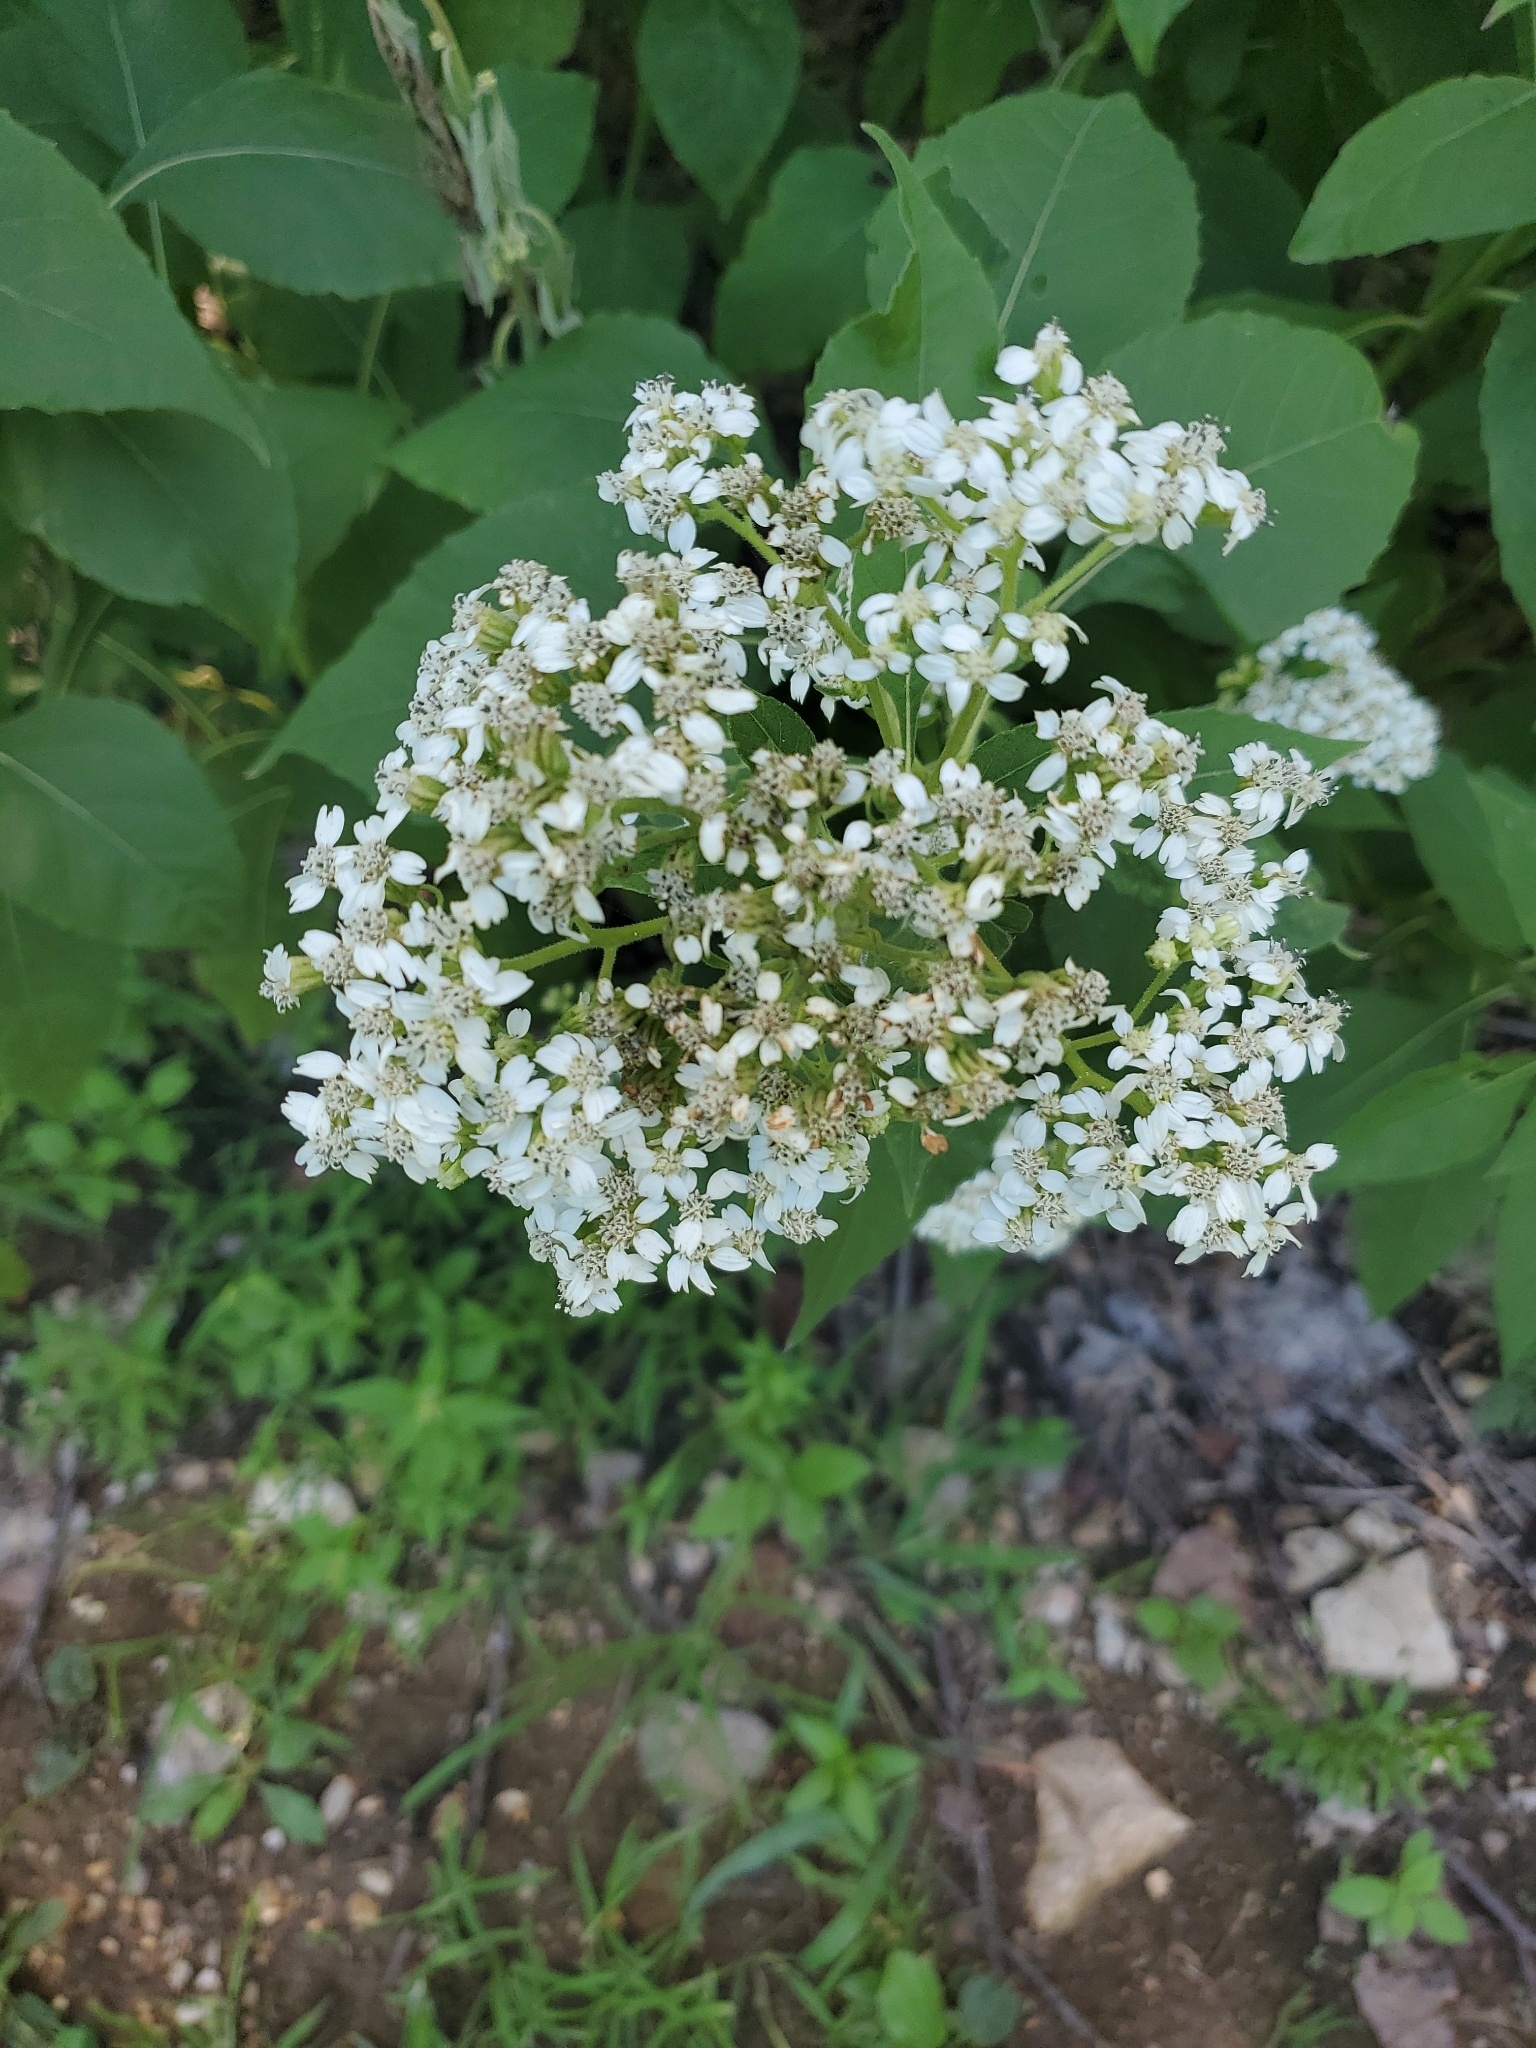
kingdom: Plantae
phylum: Tracheophyta
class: Magnoliopsida
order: Asterales
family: Asteraceae
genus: Verbesina
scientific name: Verbesina virginica
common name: Frostweed
